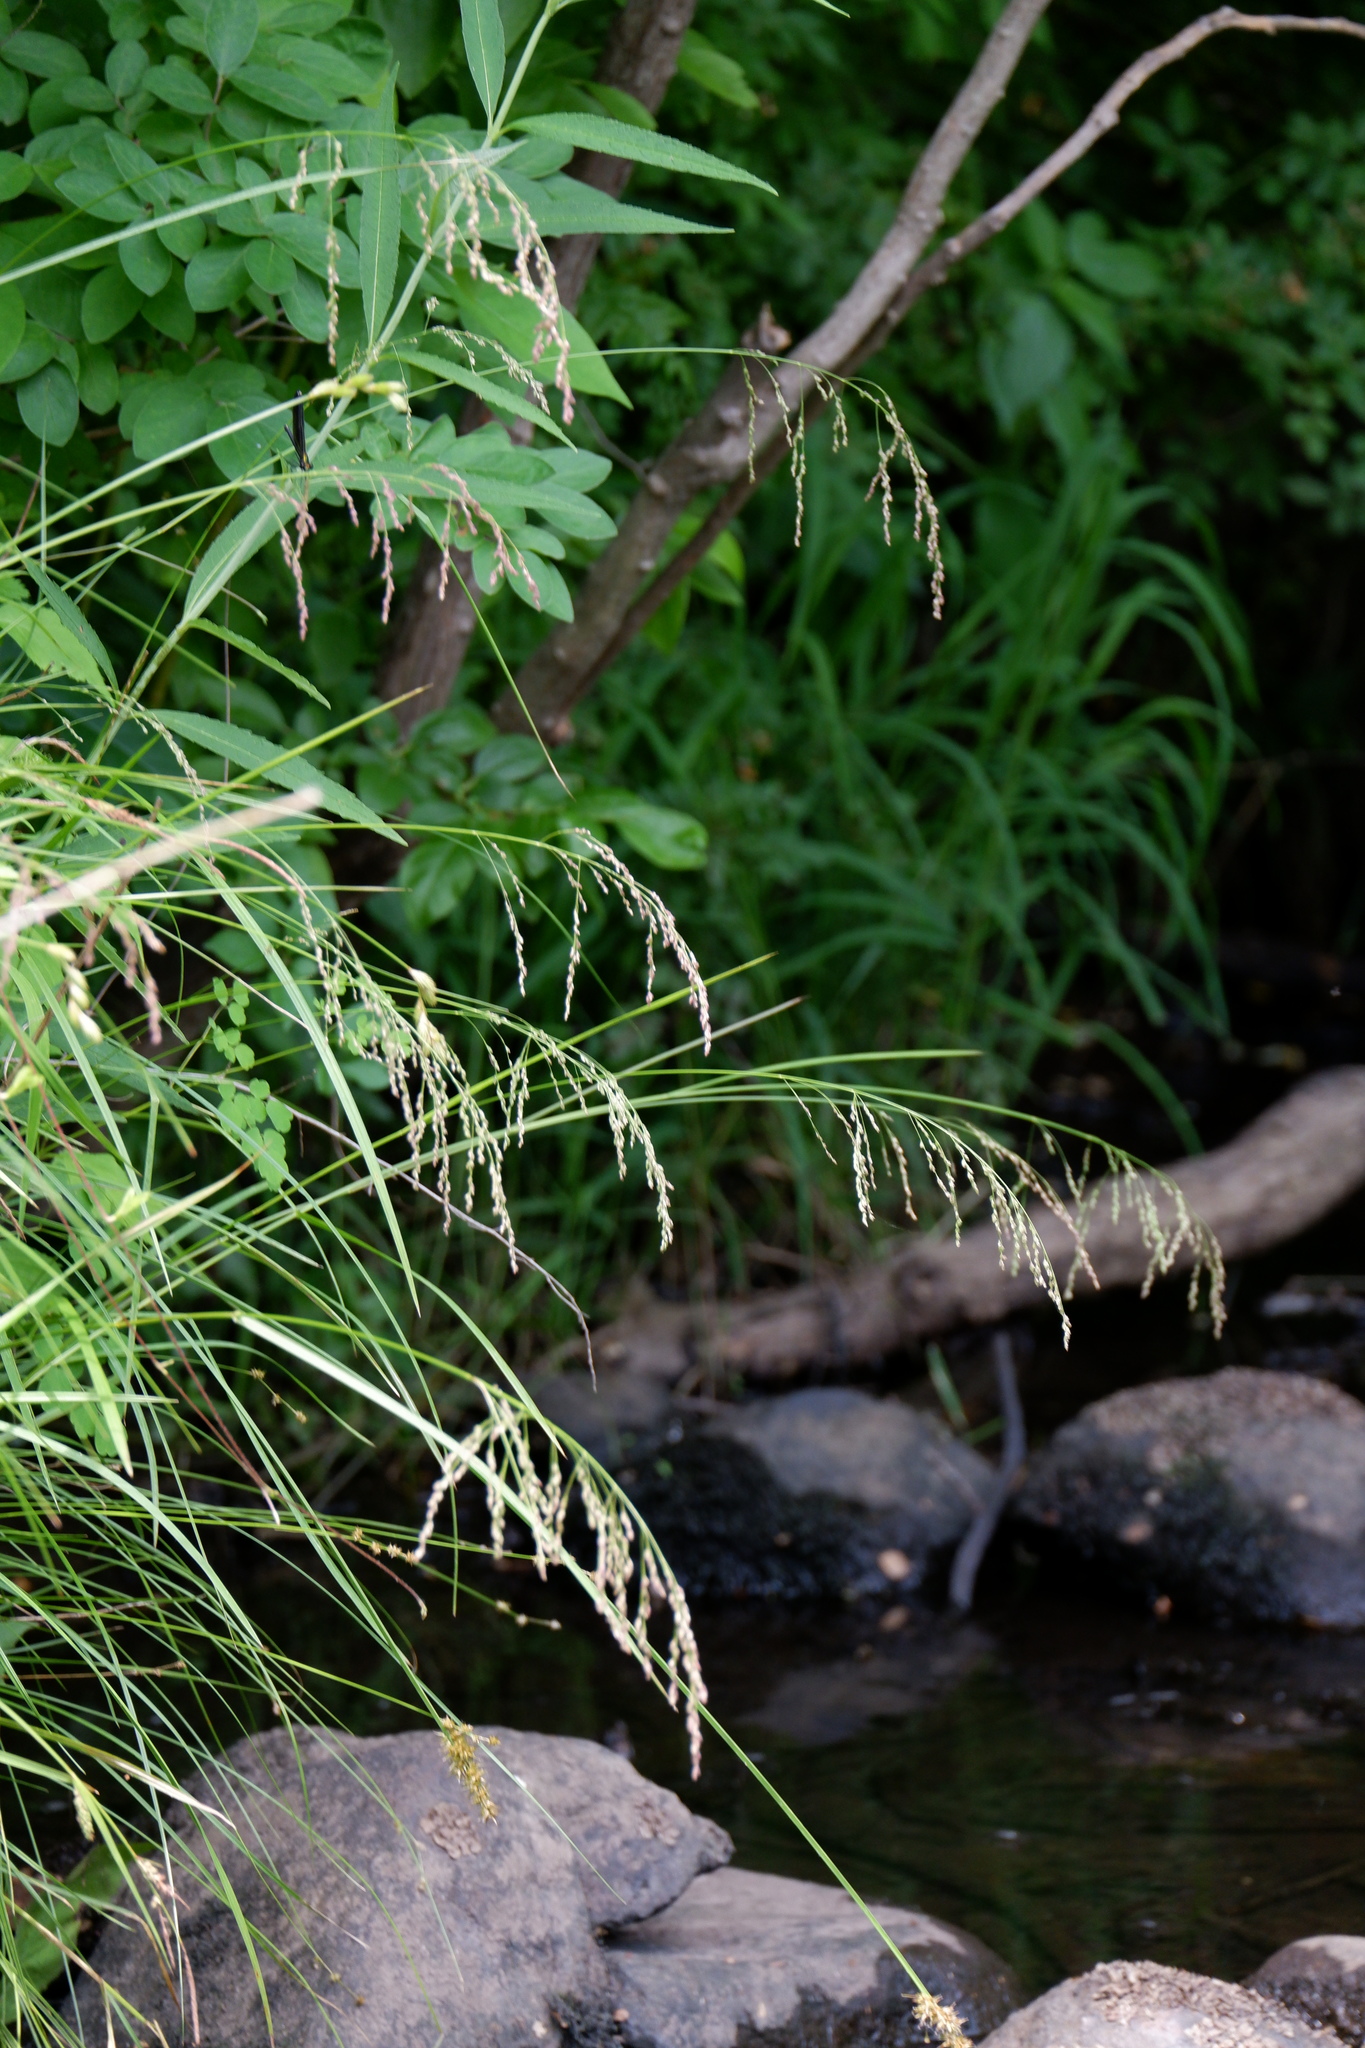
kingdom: Plantae
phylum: Tracheophyta
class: Liliopsida
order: Poales
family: Poaceae
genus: Glyceria
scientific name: Glyceria striata
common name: Fowl manna grass
